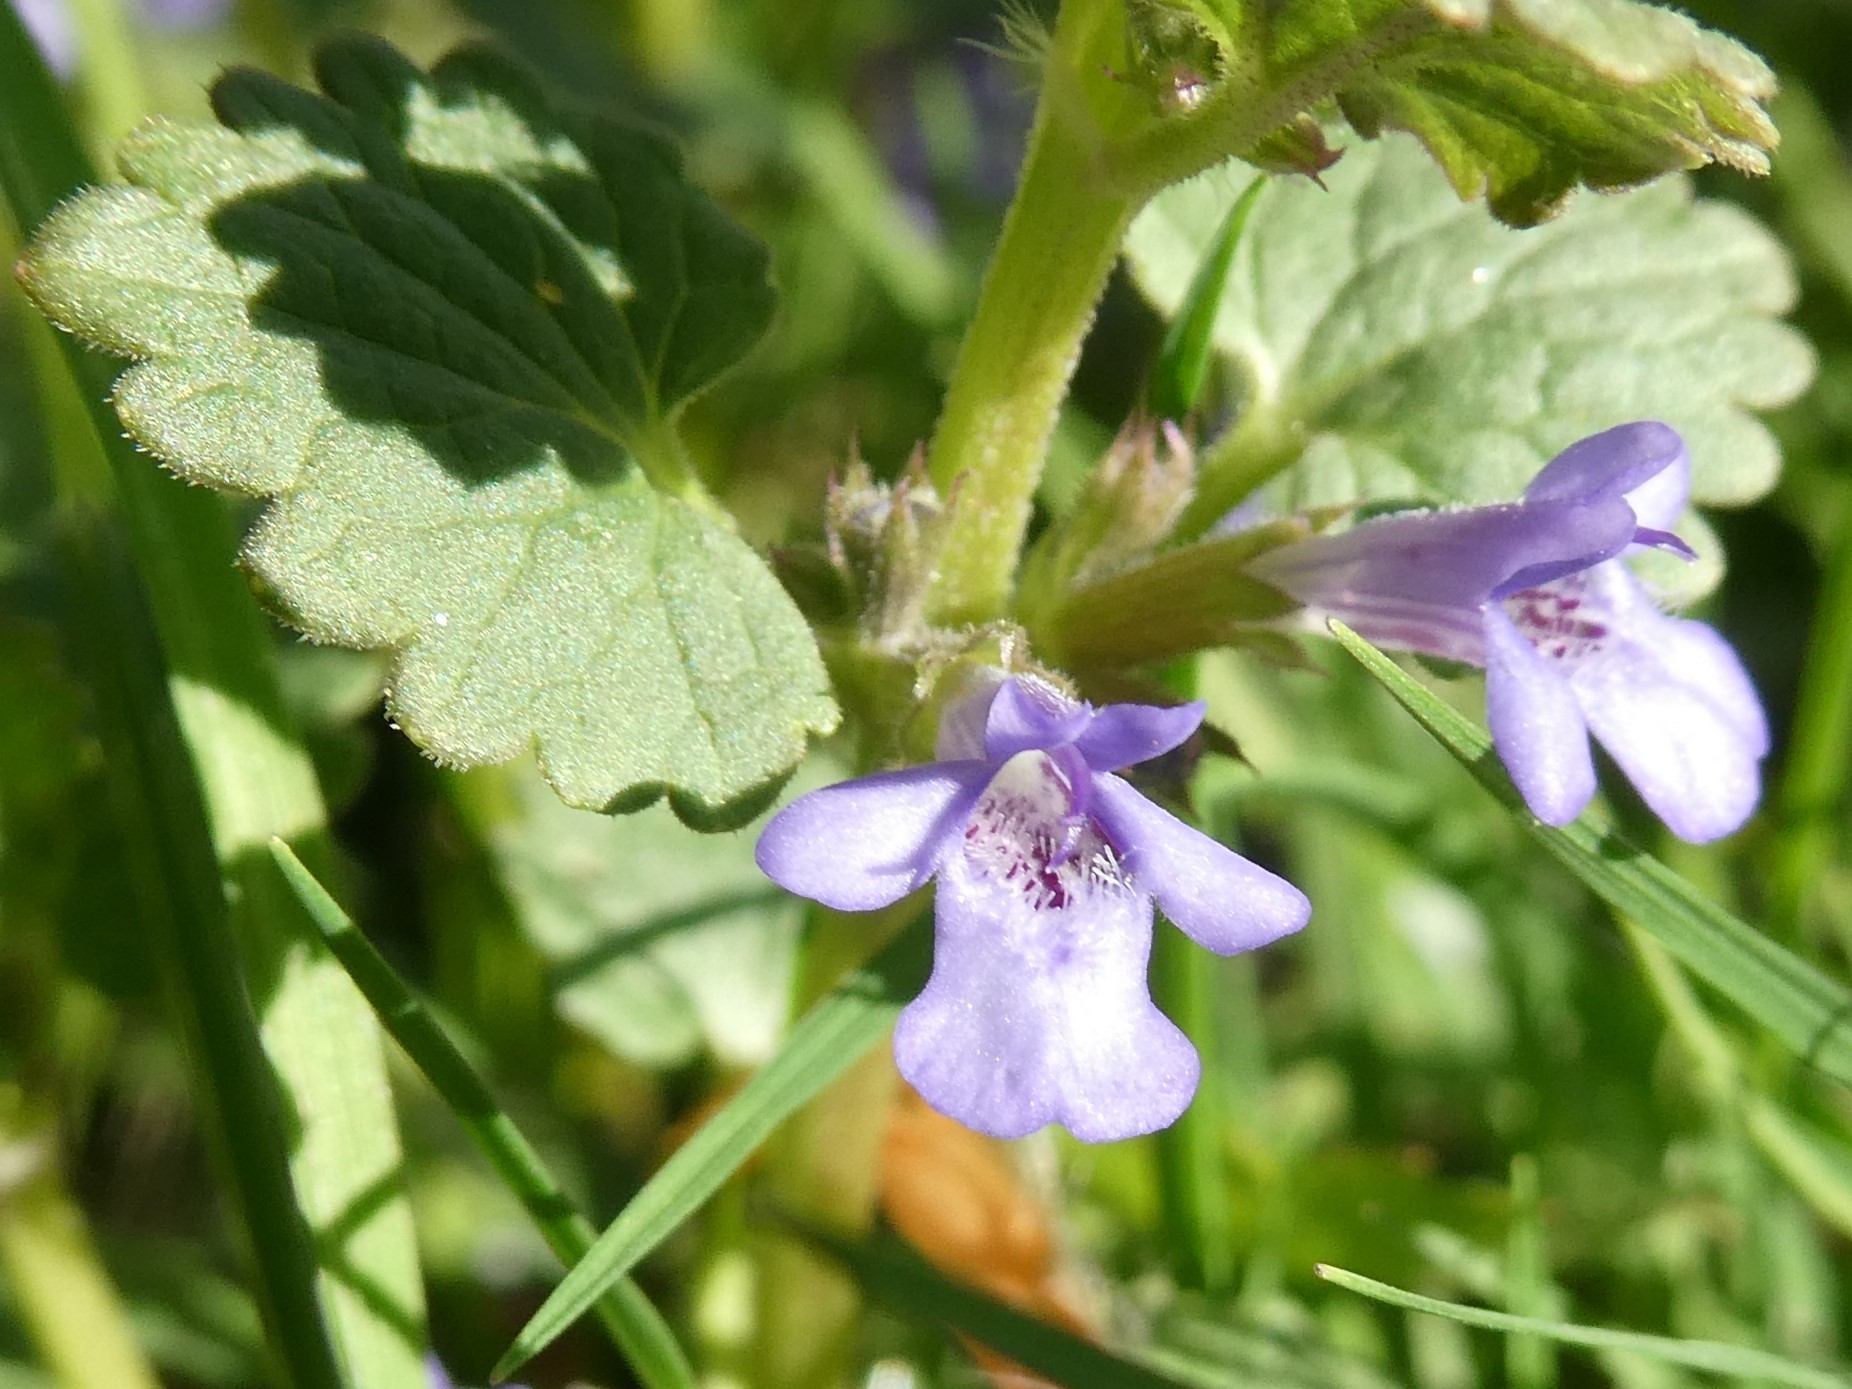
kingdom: Plantae
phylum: Tracheophyta
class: Magnoliopsida
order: Lamiales
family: Lamiaceae
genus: Glechoma
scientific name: Glechoma hederacea
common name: Ground ivy
